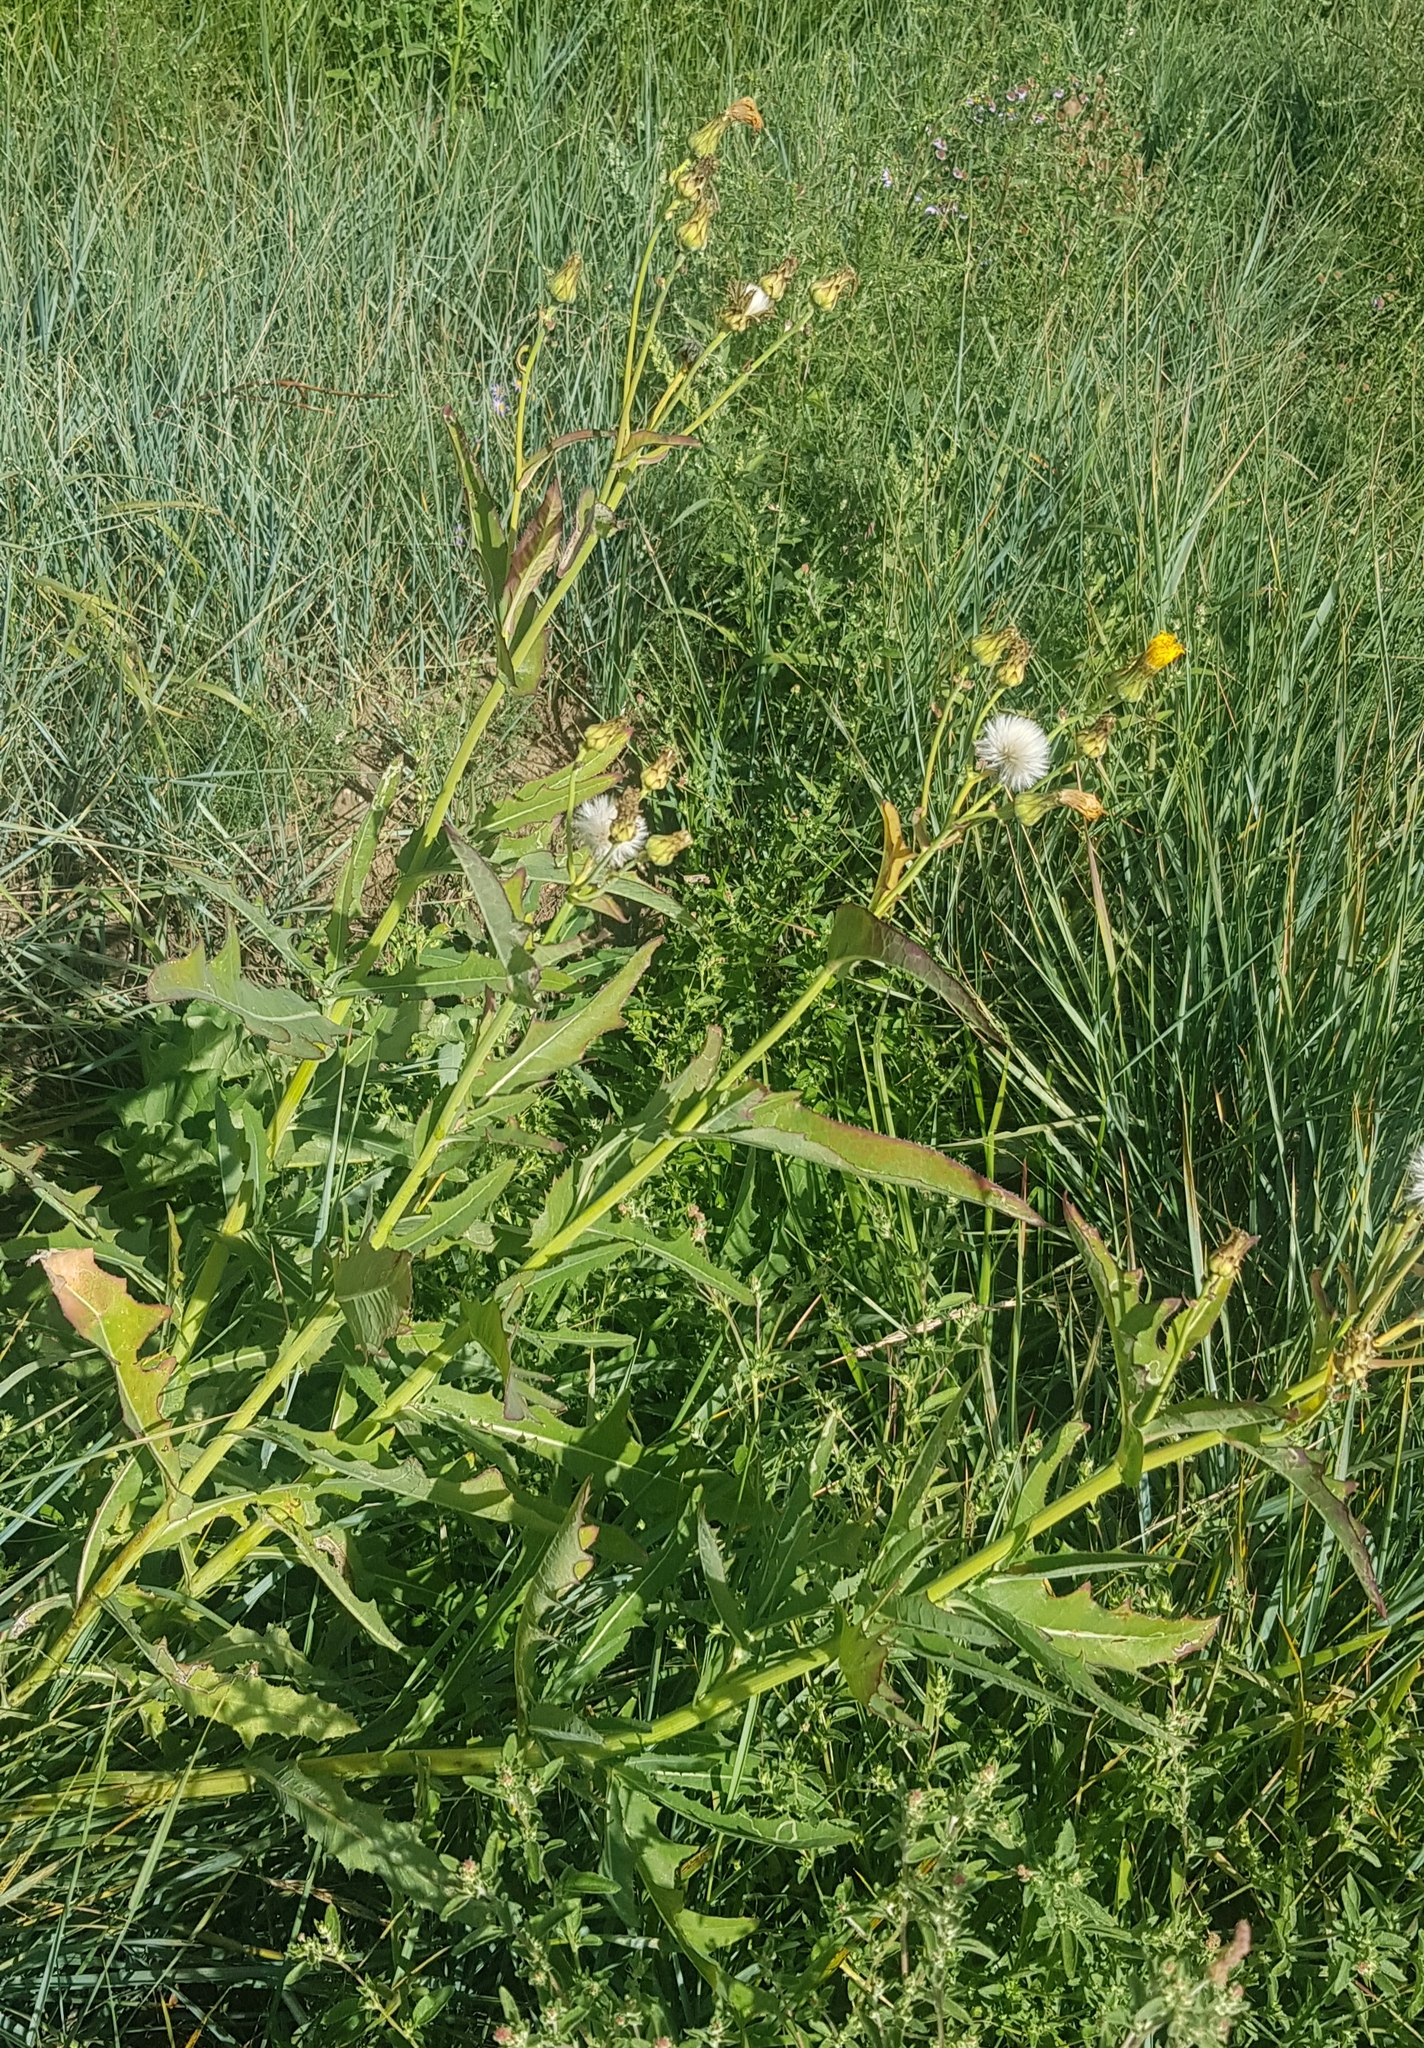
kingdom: Plantae
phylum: Tracheophyta
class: Magnoliopsida
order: Asterales
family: Asteraceae
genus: Sonchus
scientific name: Sonchus arvensis
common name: Perennial sow-thistle
